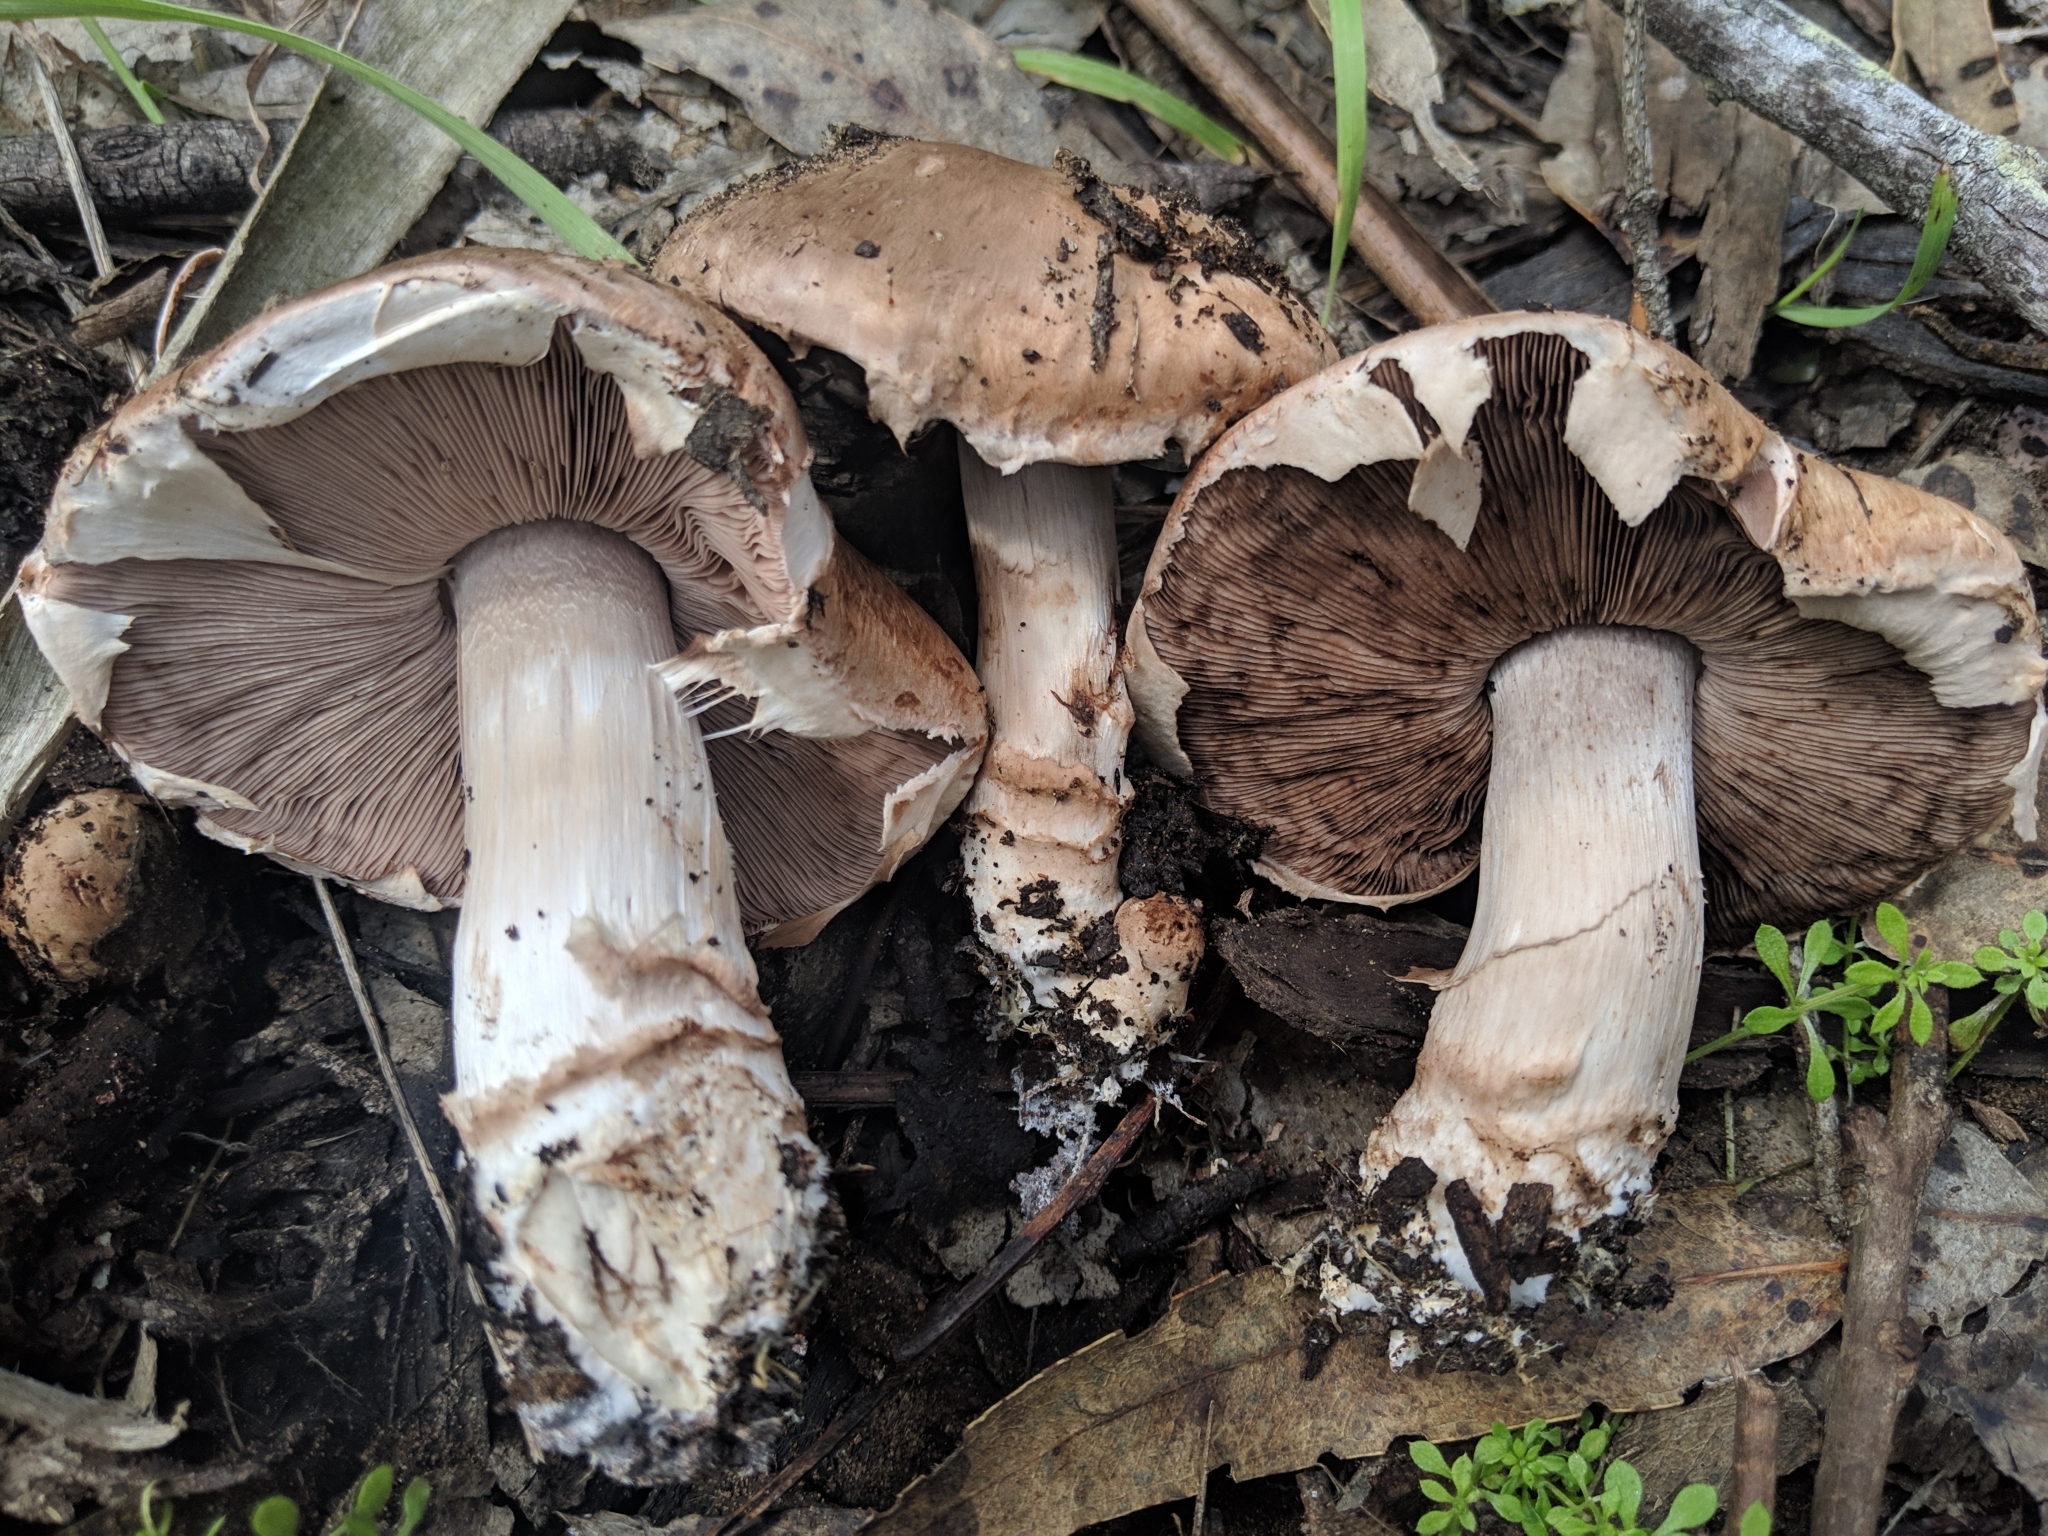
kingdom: Fungi
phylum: Basidiomycota
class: Agaricomycetes
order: Agaricales
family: Agaricaceae
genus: Agaricus
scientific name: Agaricus brunneofibrillosus
